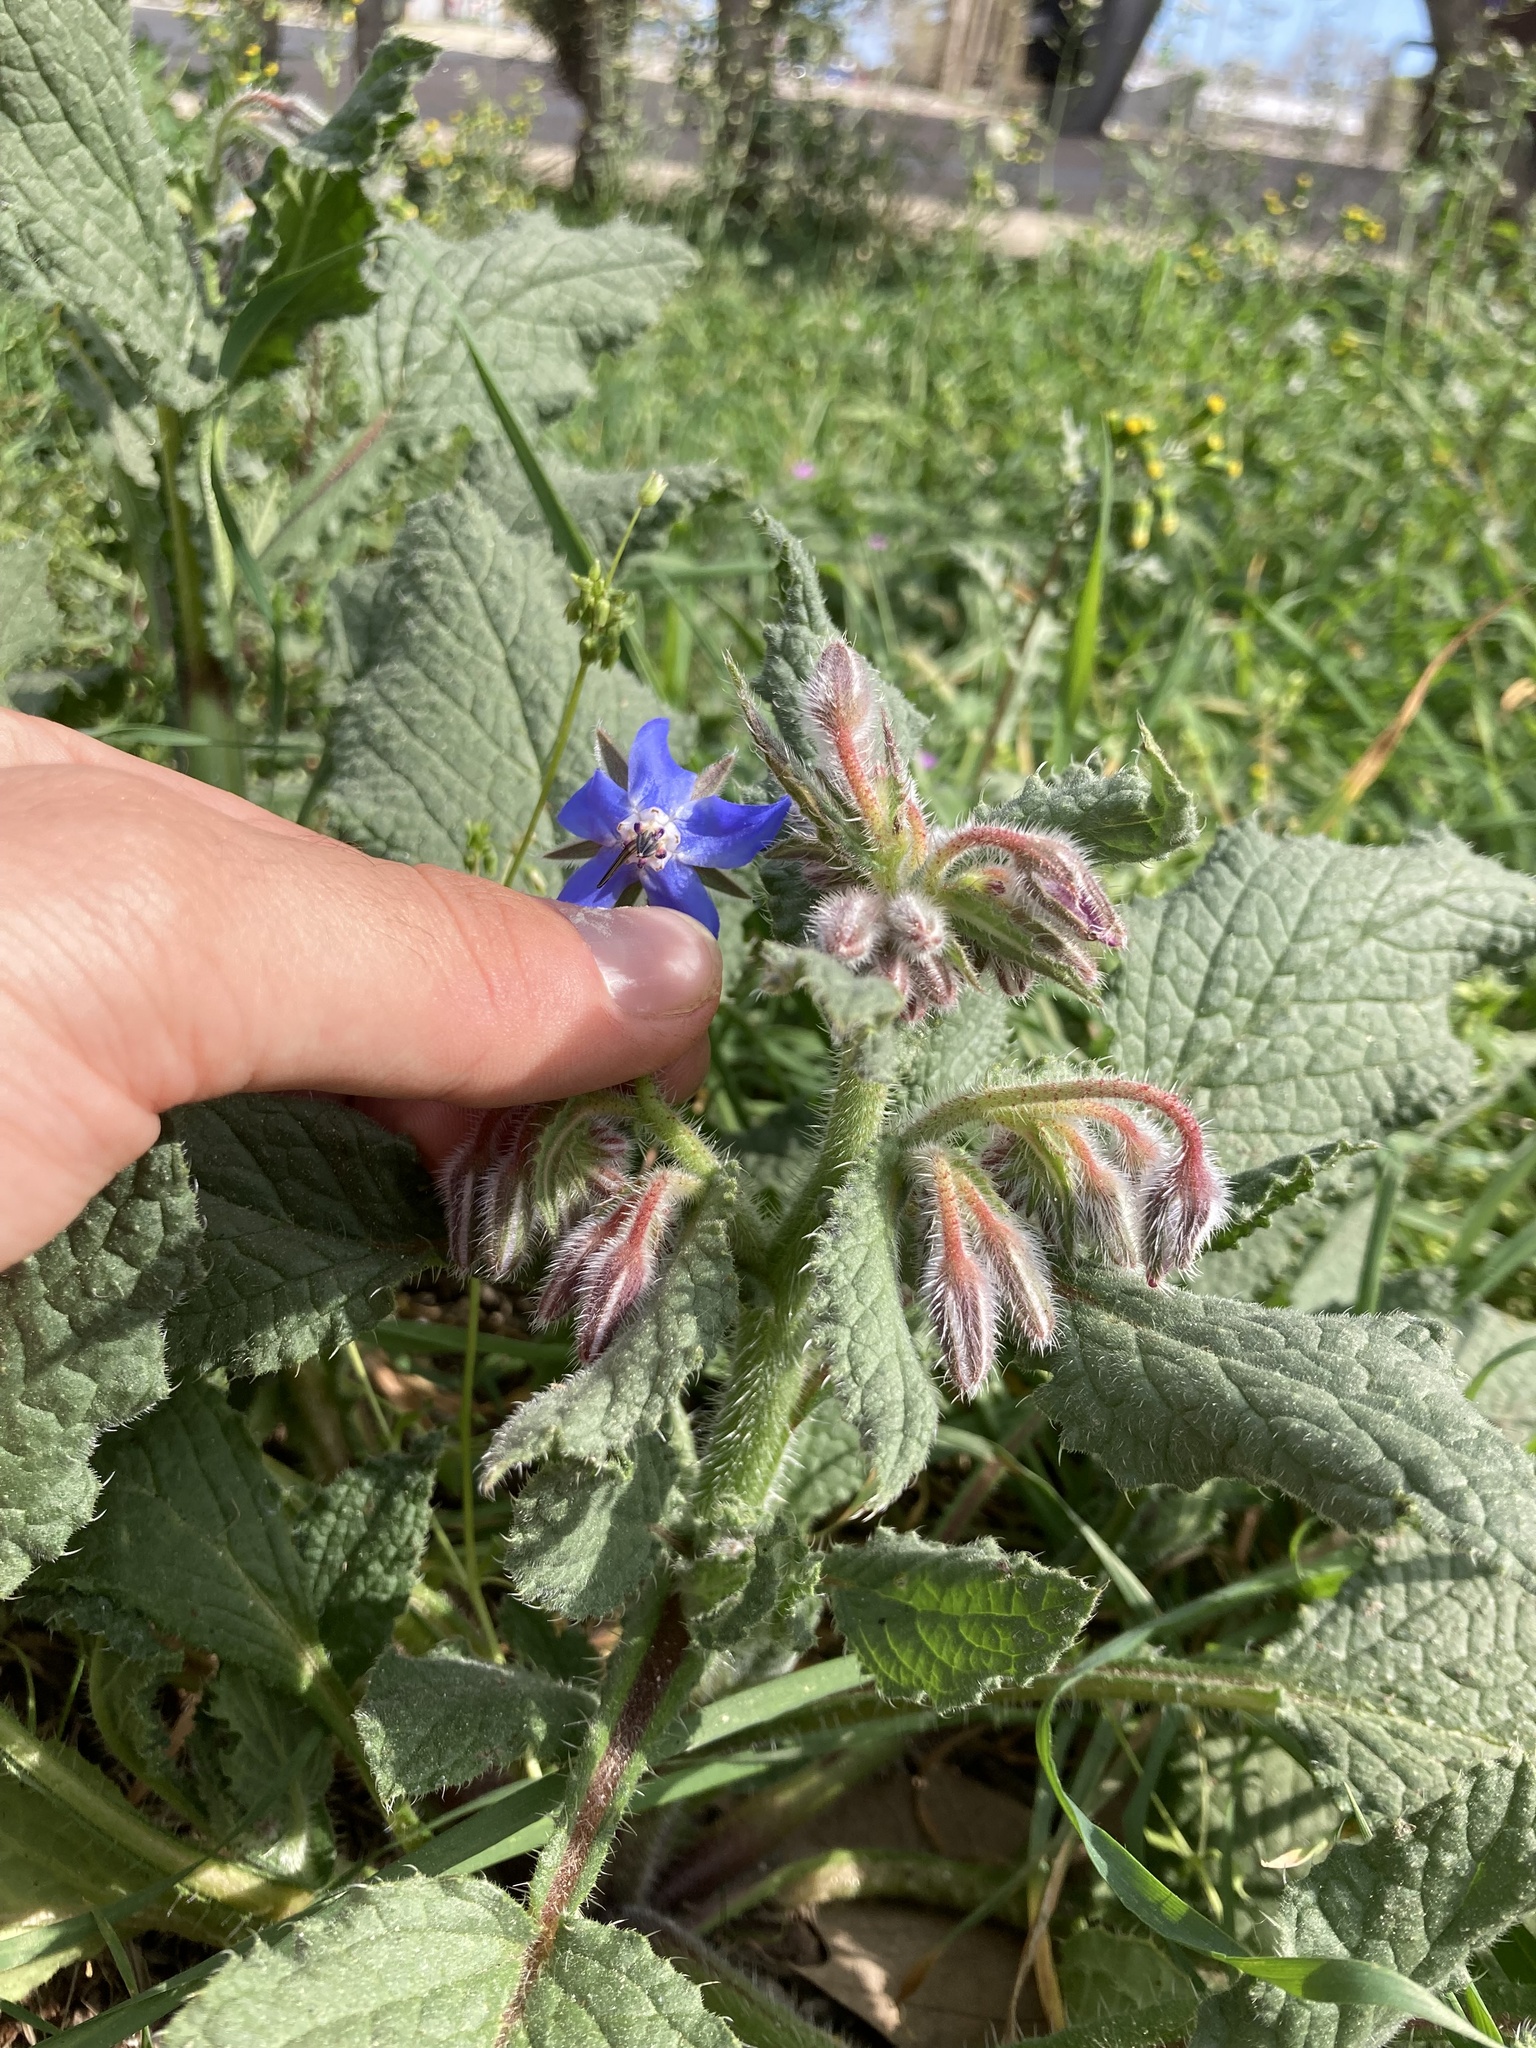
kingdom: Plantae
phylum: Tracheophyta
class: Magnoliopsida
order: Boraginales
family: Boraginaceae
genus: Borago
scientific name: Borago officinalis
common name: Borage
